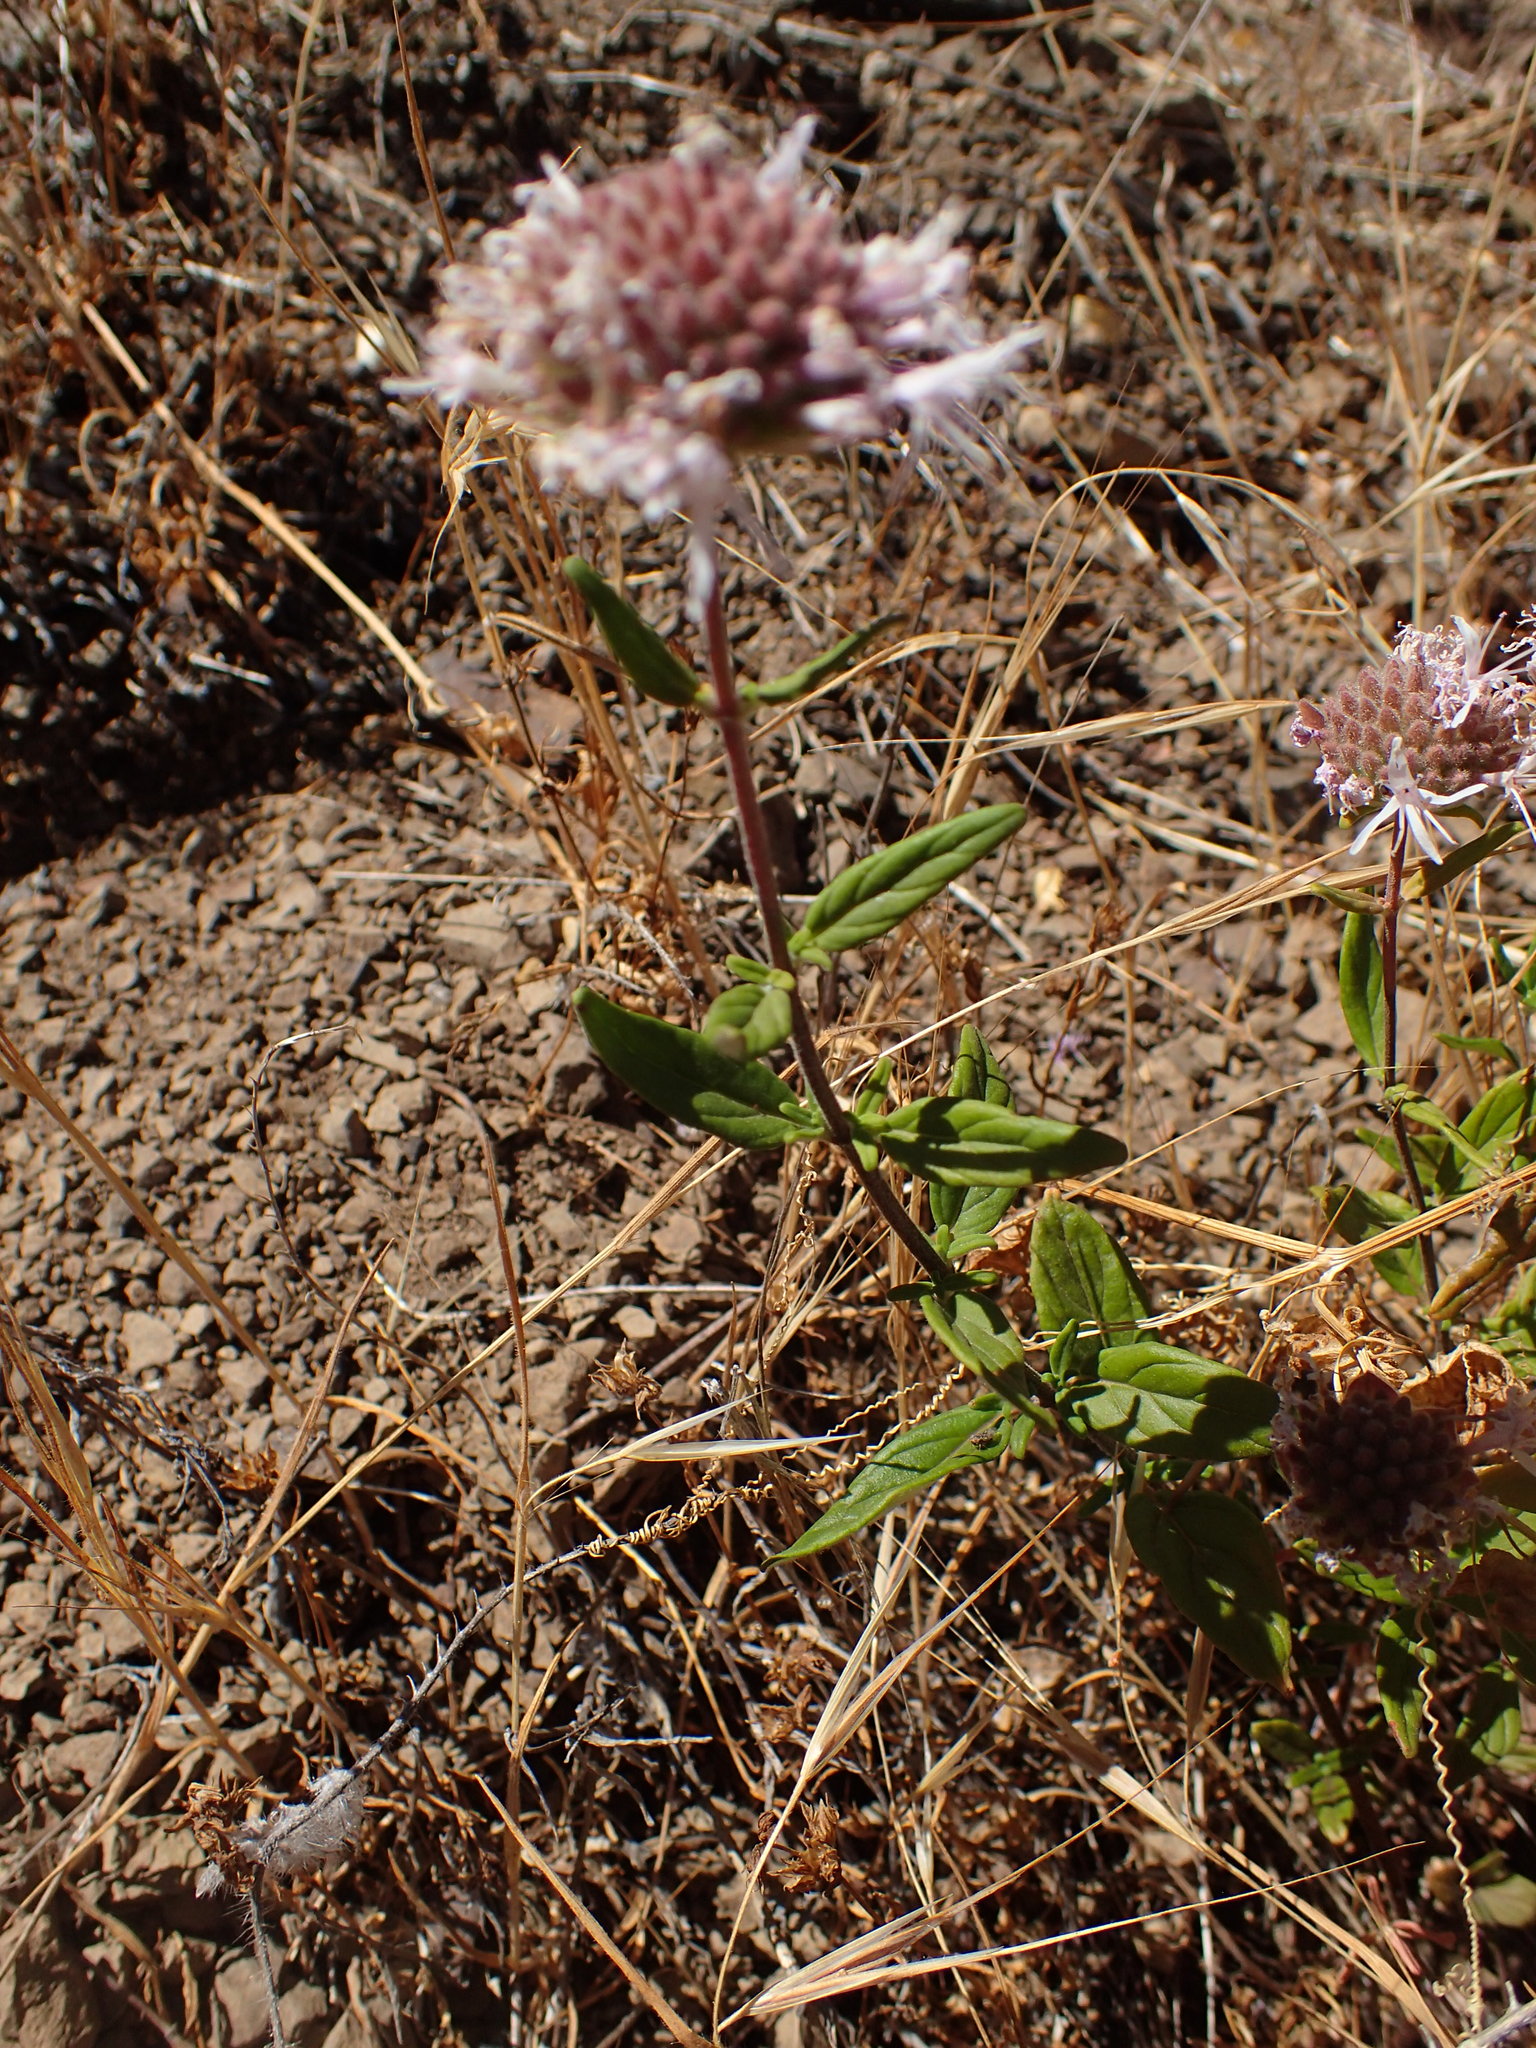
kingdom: Plantae
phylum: Tracheophyta
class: Magnoliopsida
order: Lamiales
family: Lamiaceae
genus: Monardella
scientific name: Monardella hypoleuca
